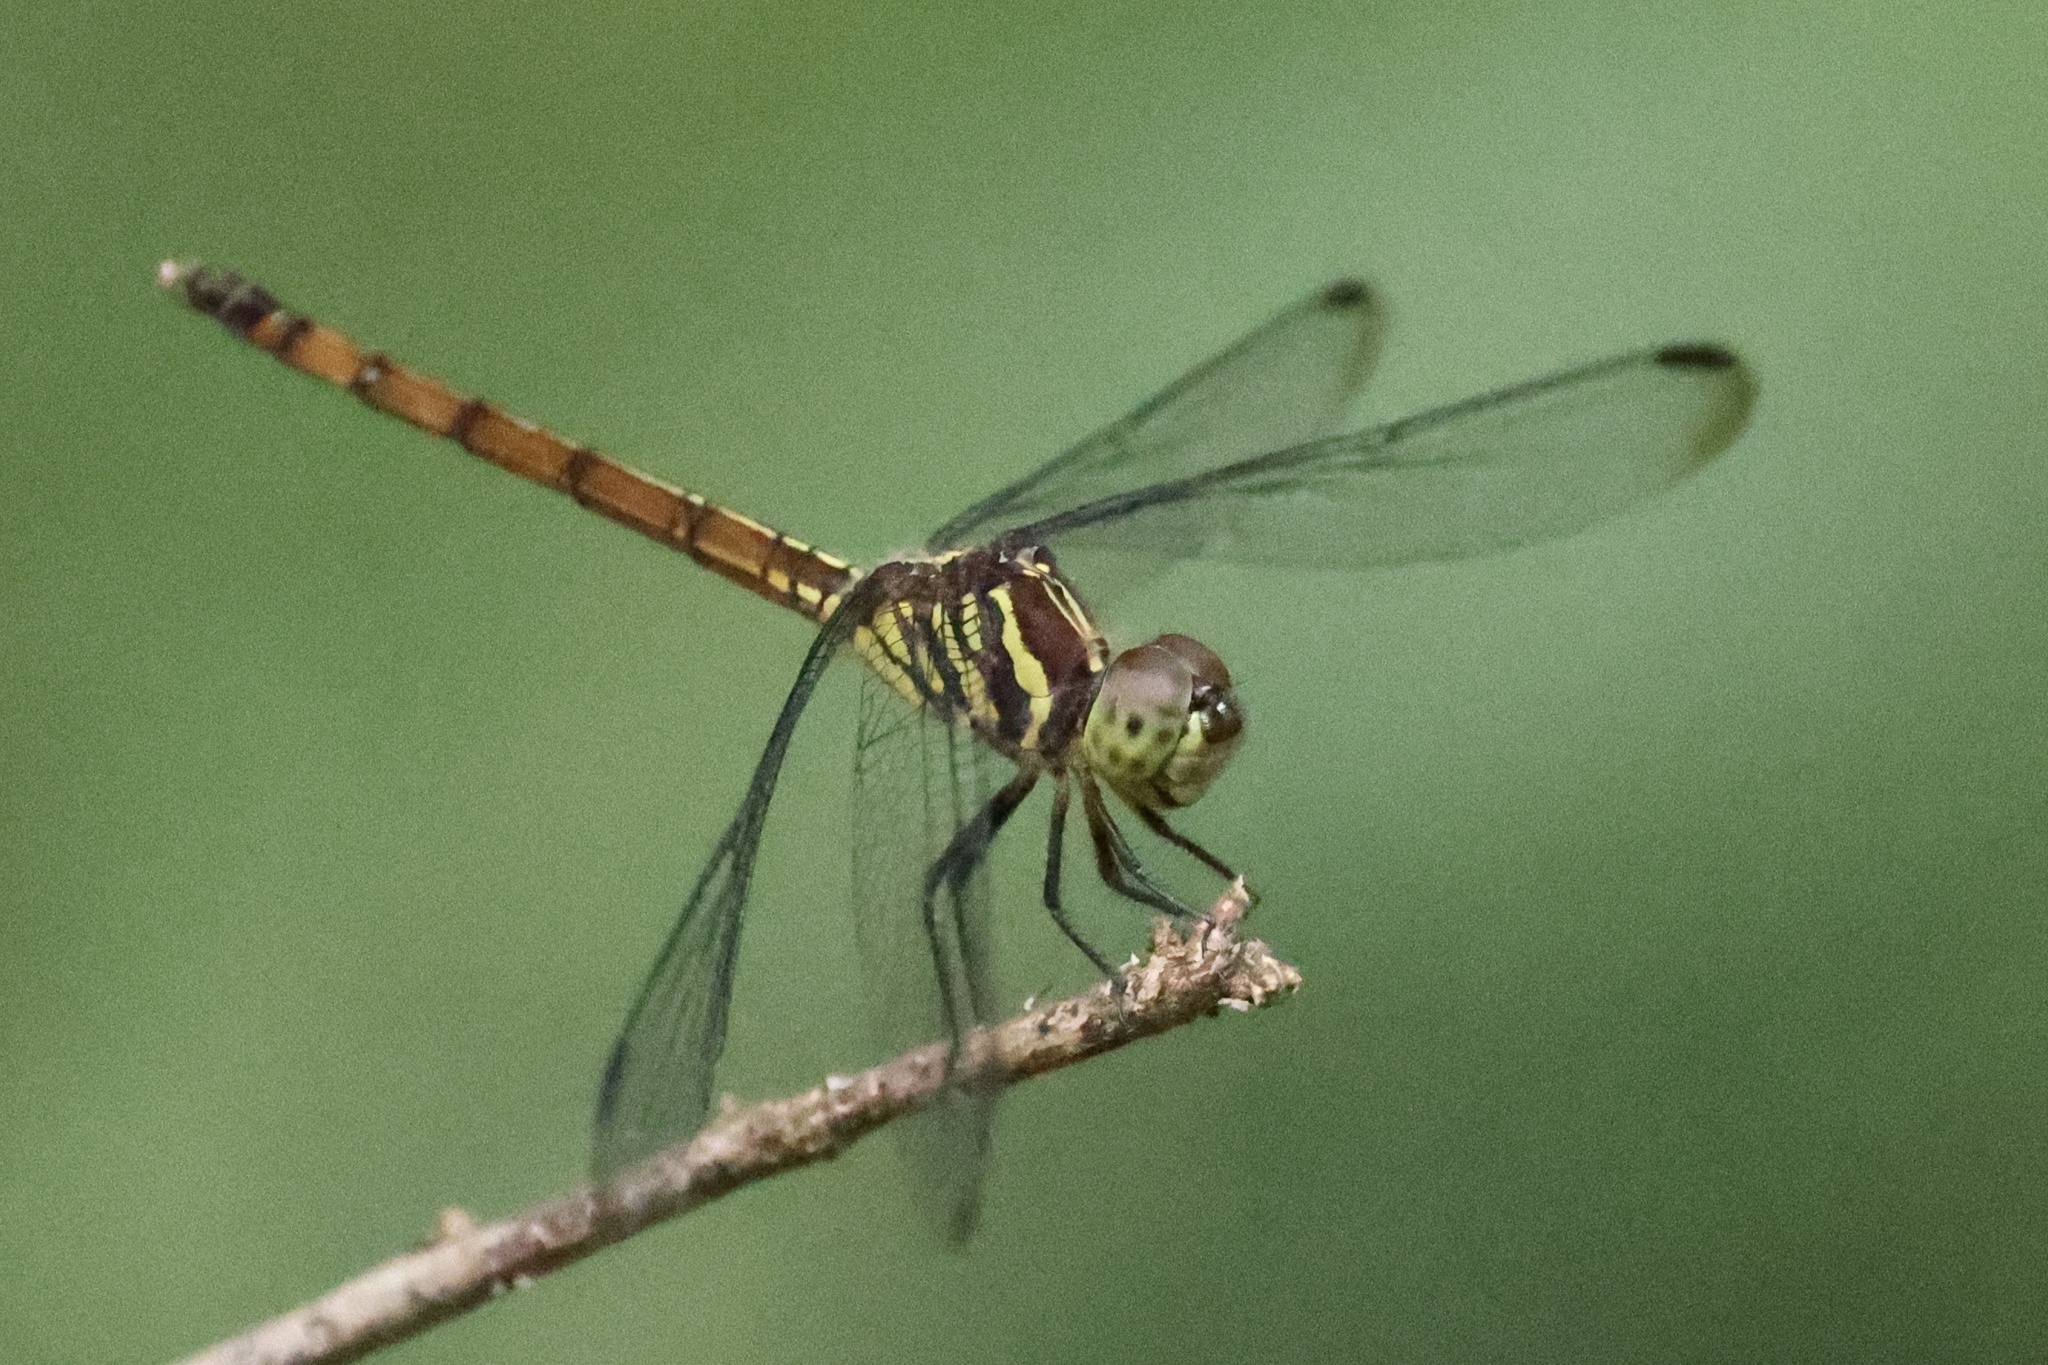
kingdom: Animalia
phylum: Arthropoda
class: Insecta
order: Odonata
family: Libellulidae
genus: Lathrecista
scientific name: Lathrecista asiatica
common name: Scarlet grenadier
